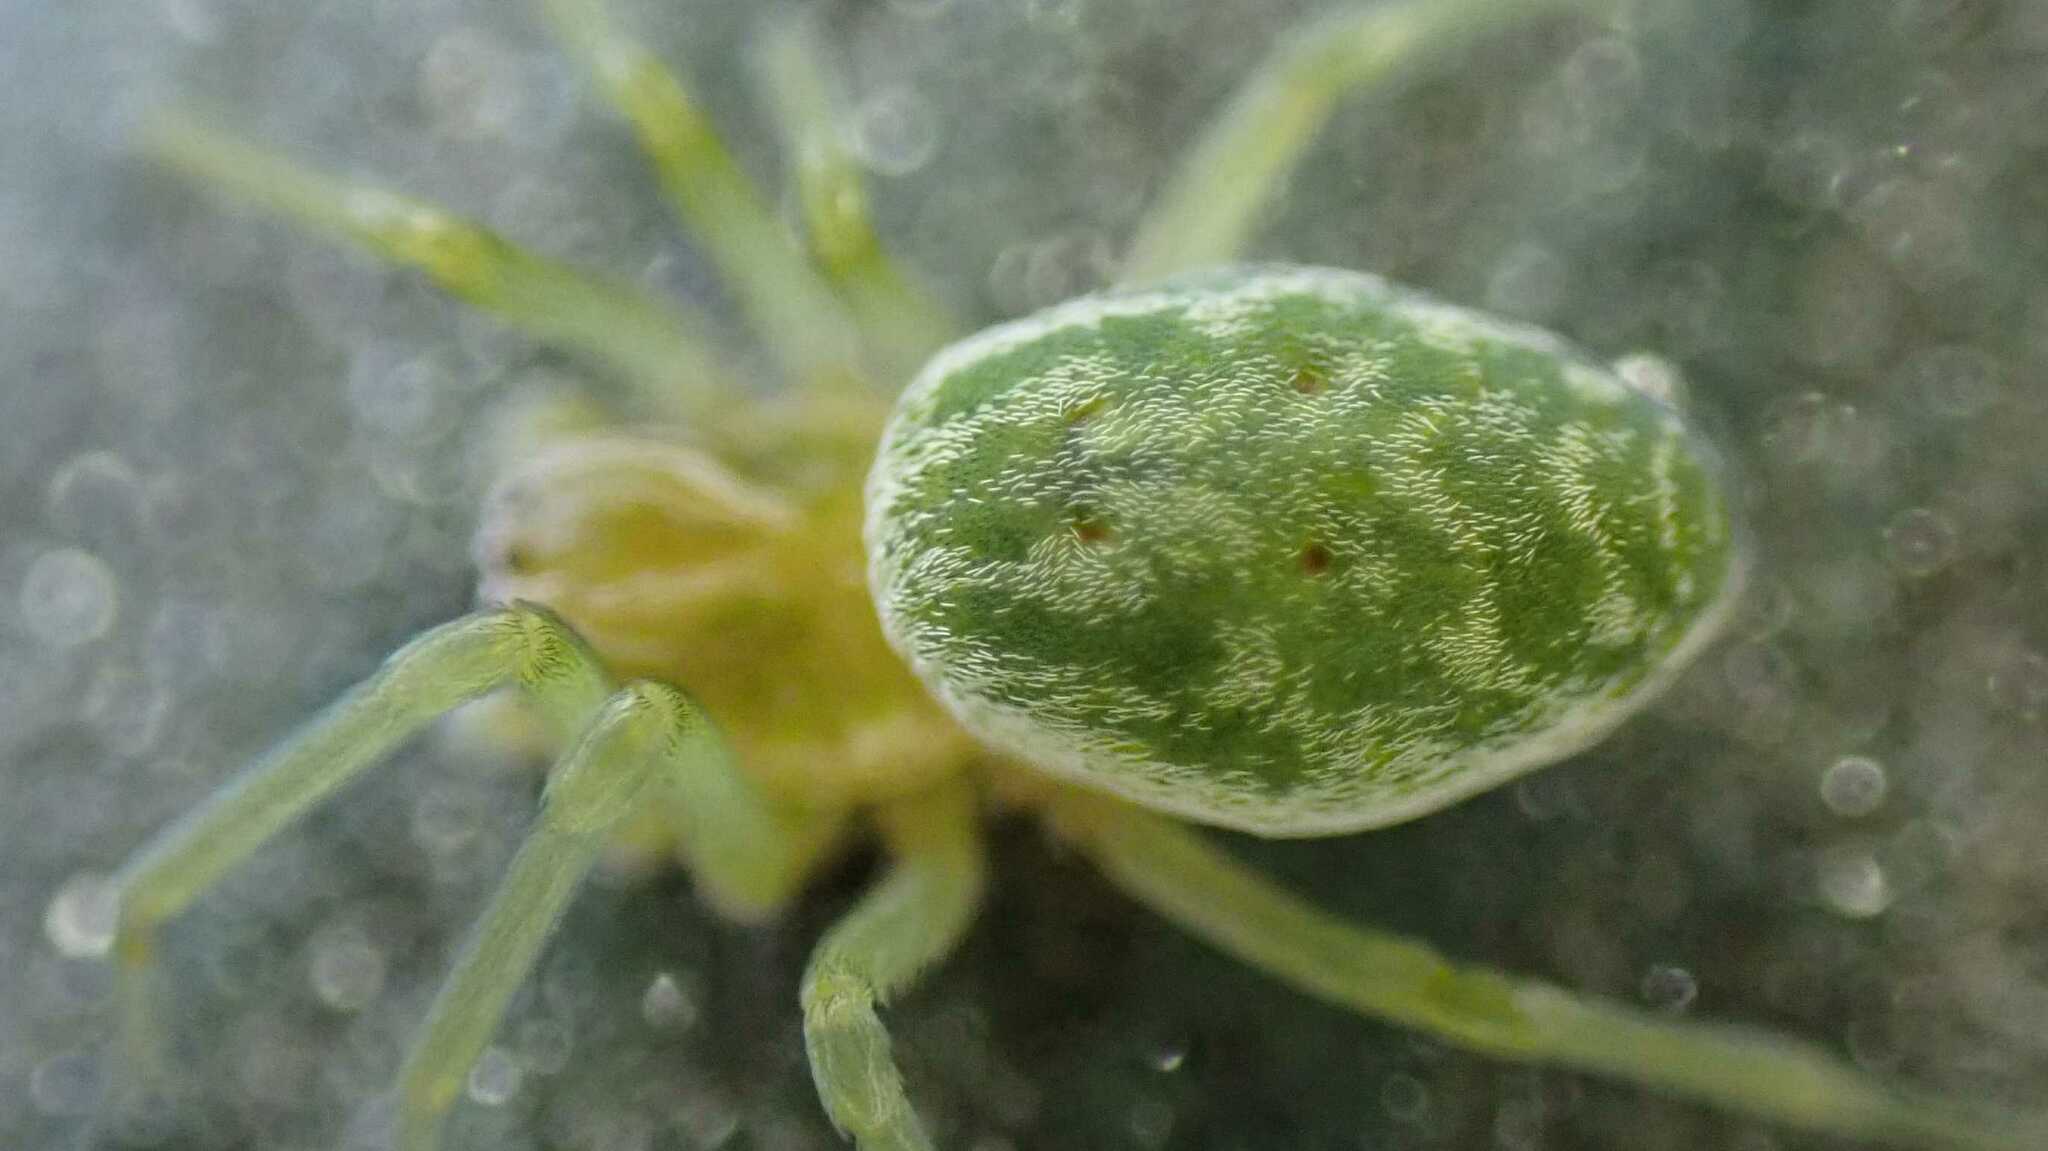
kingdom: Animalia
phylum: Arthropoda
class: Arachnida
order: Araneae
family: Dictynidae
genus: Nigma
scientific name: Nigma walckenaeri
